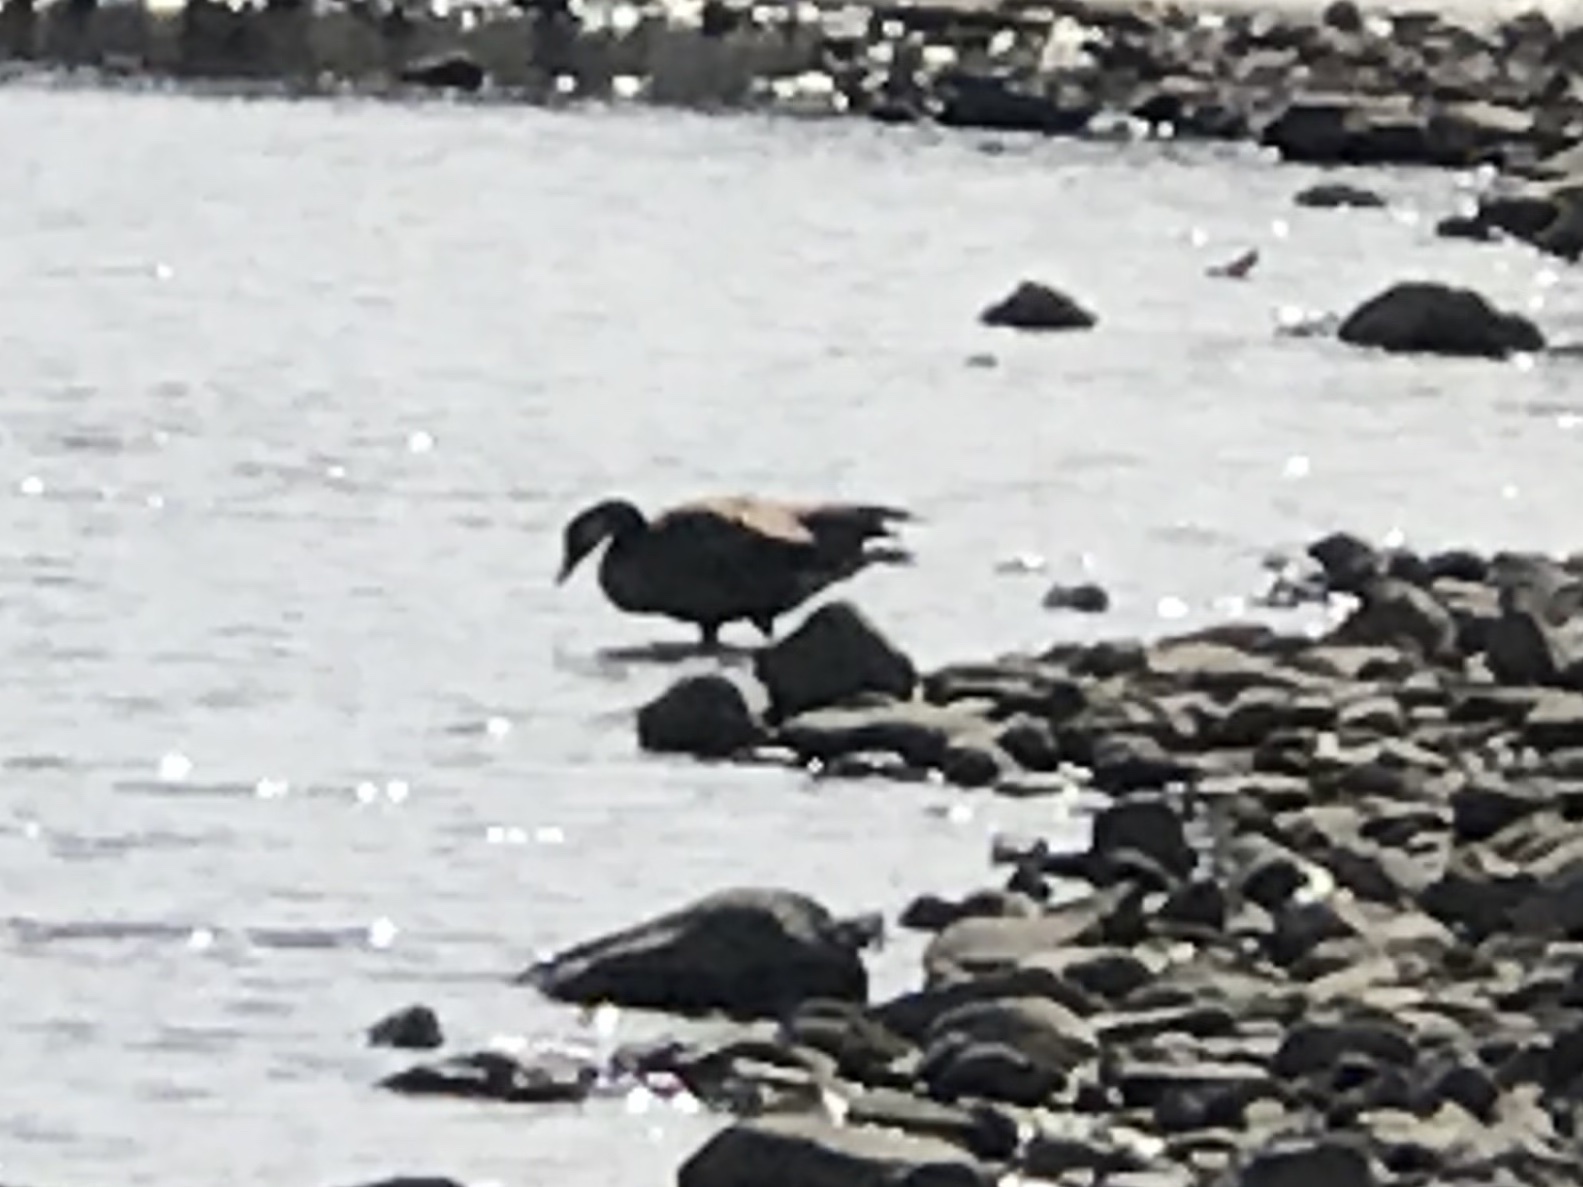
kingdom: Animalia
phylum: Chordata
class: Aves
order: Anseriformes
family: Anatidae
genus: Branta
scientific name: Branta canadensis
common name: Canada goose
